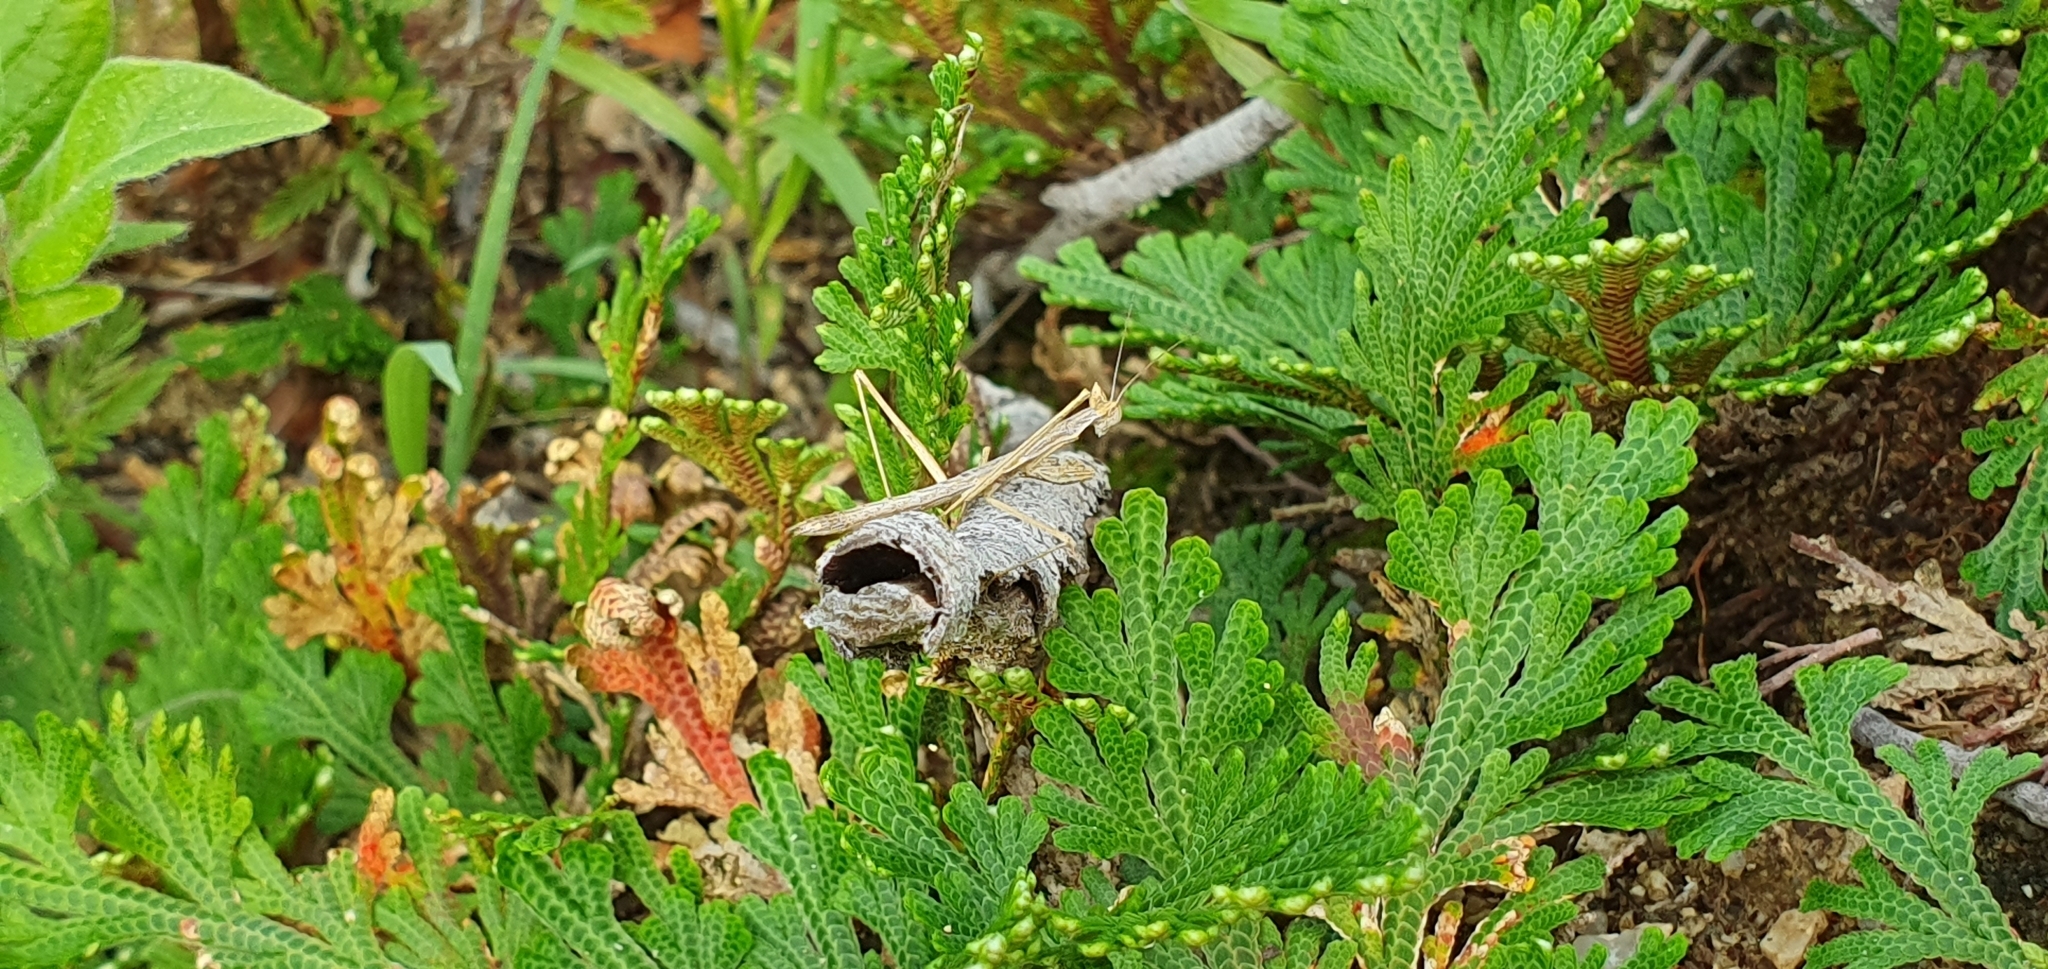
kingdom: Animalia
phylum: Arthropoda
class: Insecta
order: Mantodea
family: Amelidae
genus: Yersiniops
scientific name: Yersiniops newboldi
